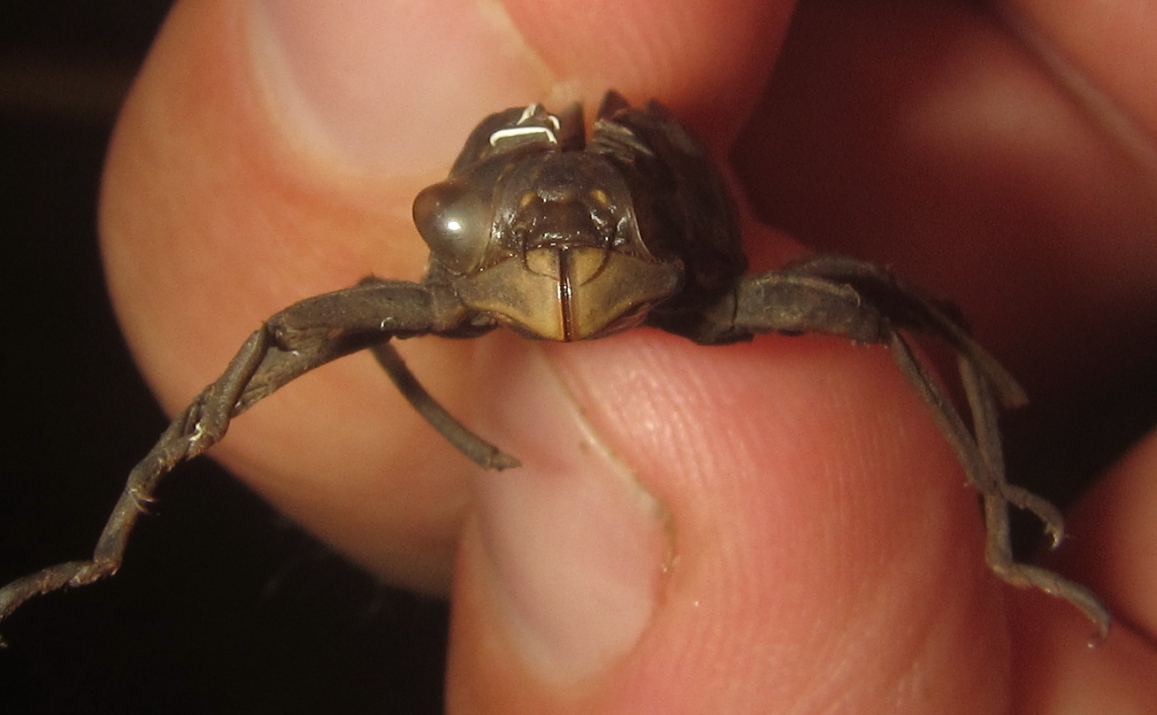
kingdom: Animalia
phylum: Arthropoda
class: Insecta
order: Odonata
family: Libellulidae
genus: Zygonyx
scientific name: Zygonyx torridus
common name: Ringed cascader
